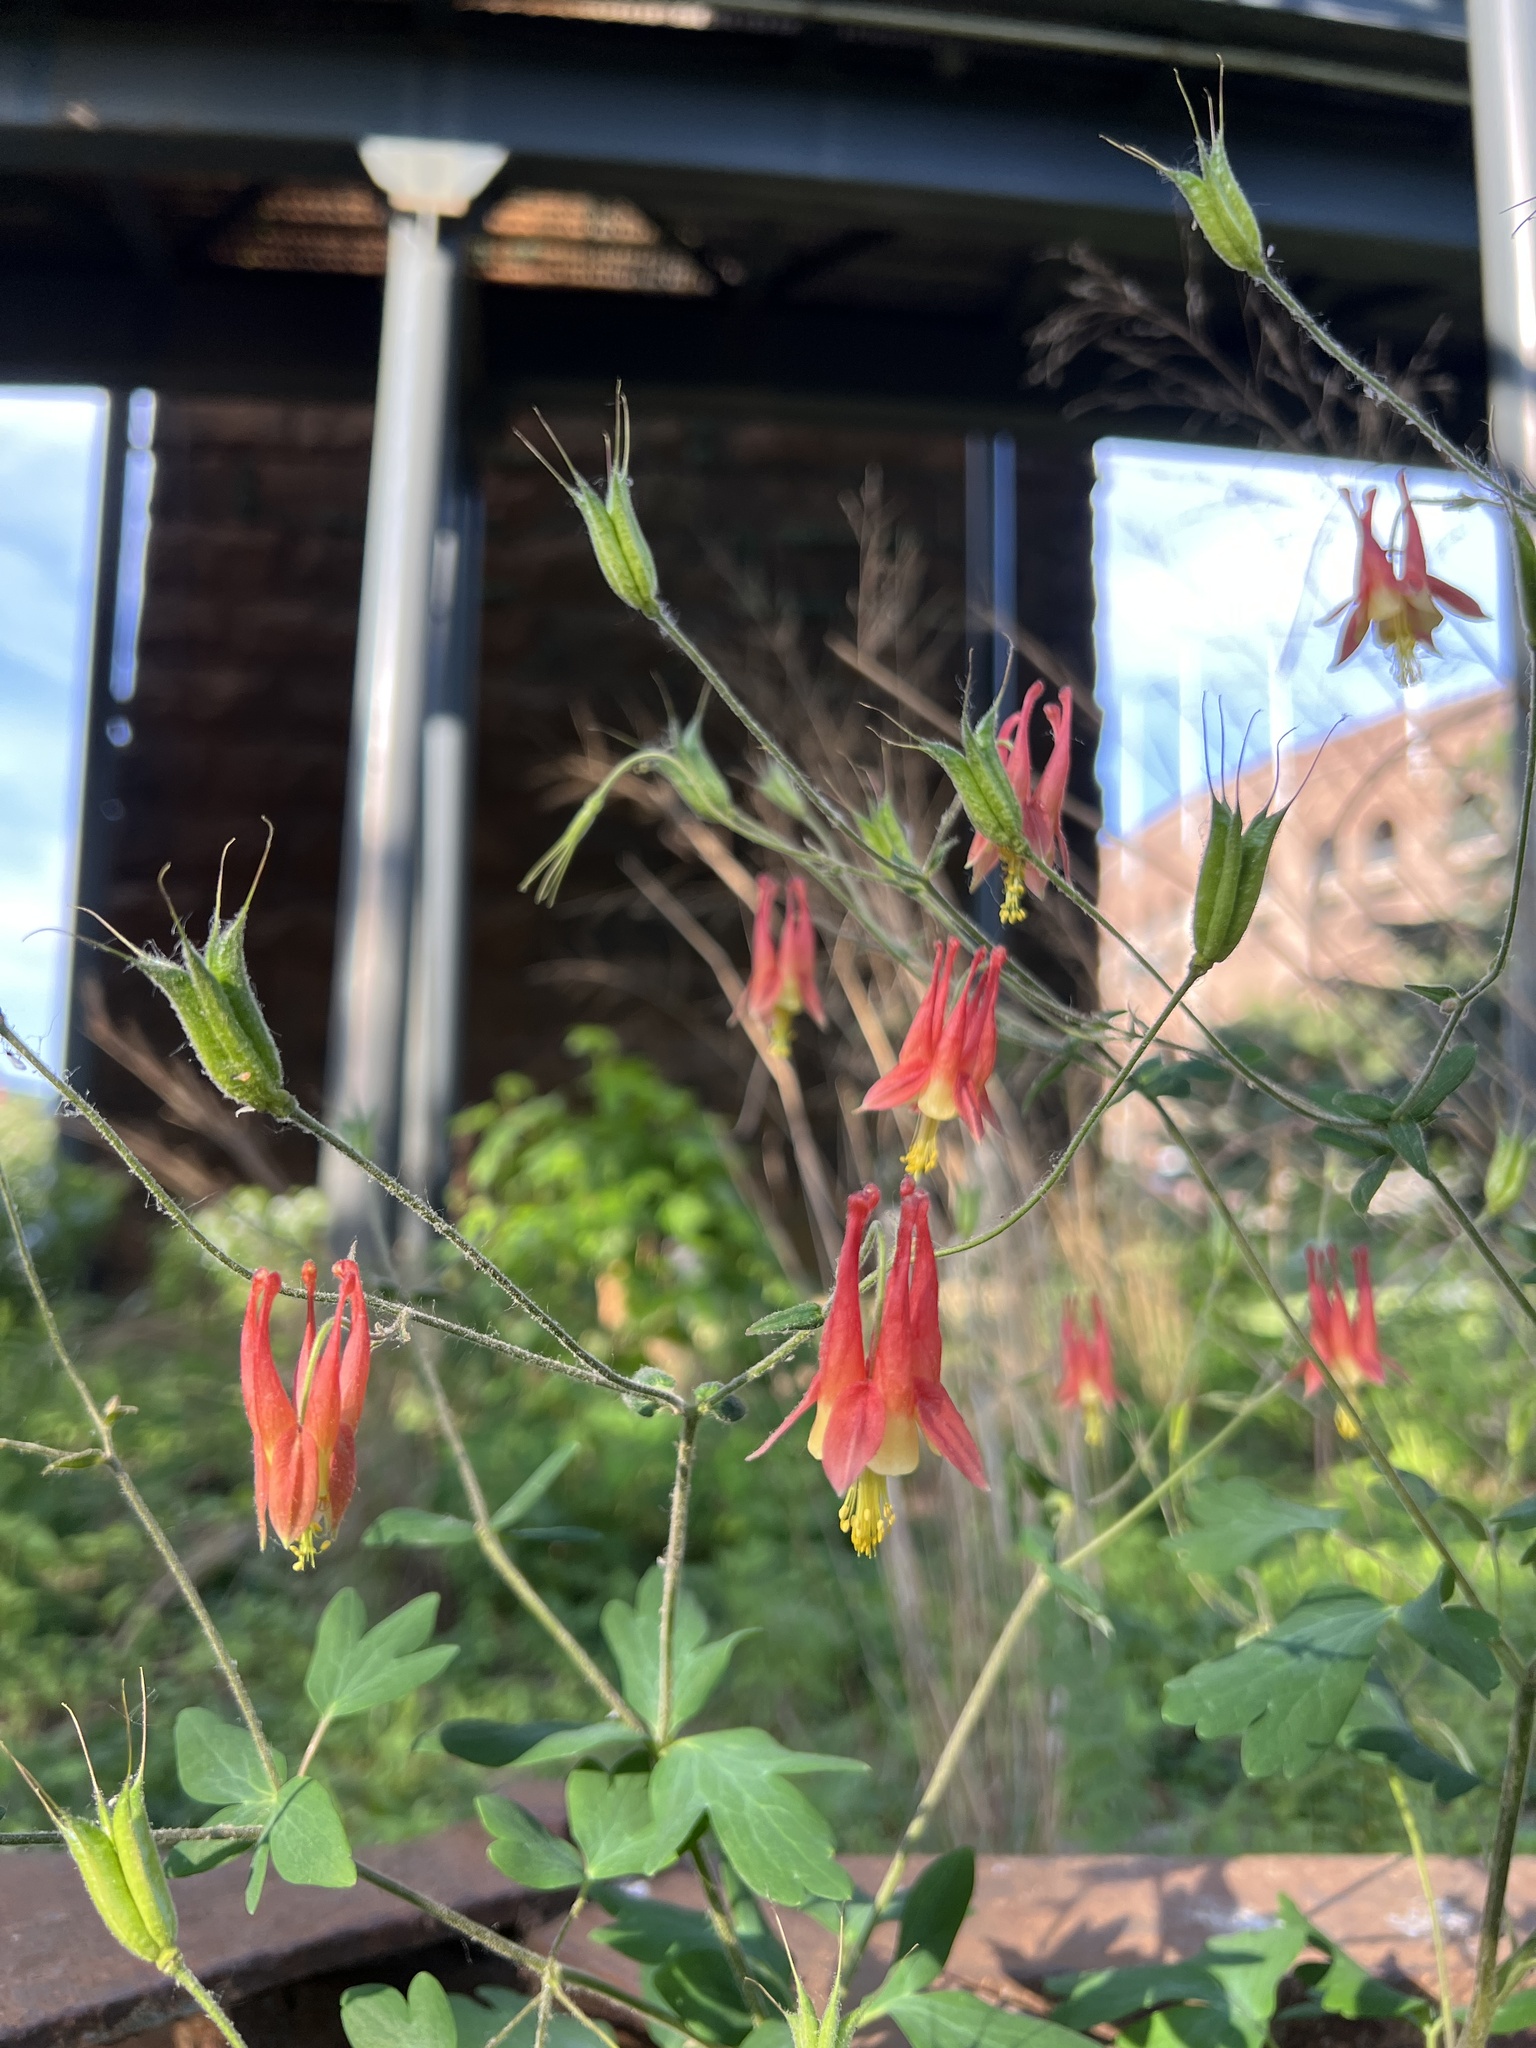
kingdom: Plantae
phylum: Tracheophyta
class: Magnoliopsida
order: Ranunculales
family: Ranunculaceae
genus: Aquilegia
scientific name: Aquilegia canadensis
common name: American columbine
